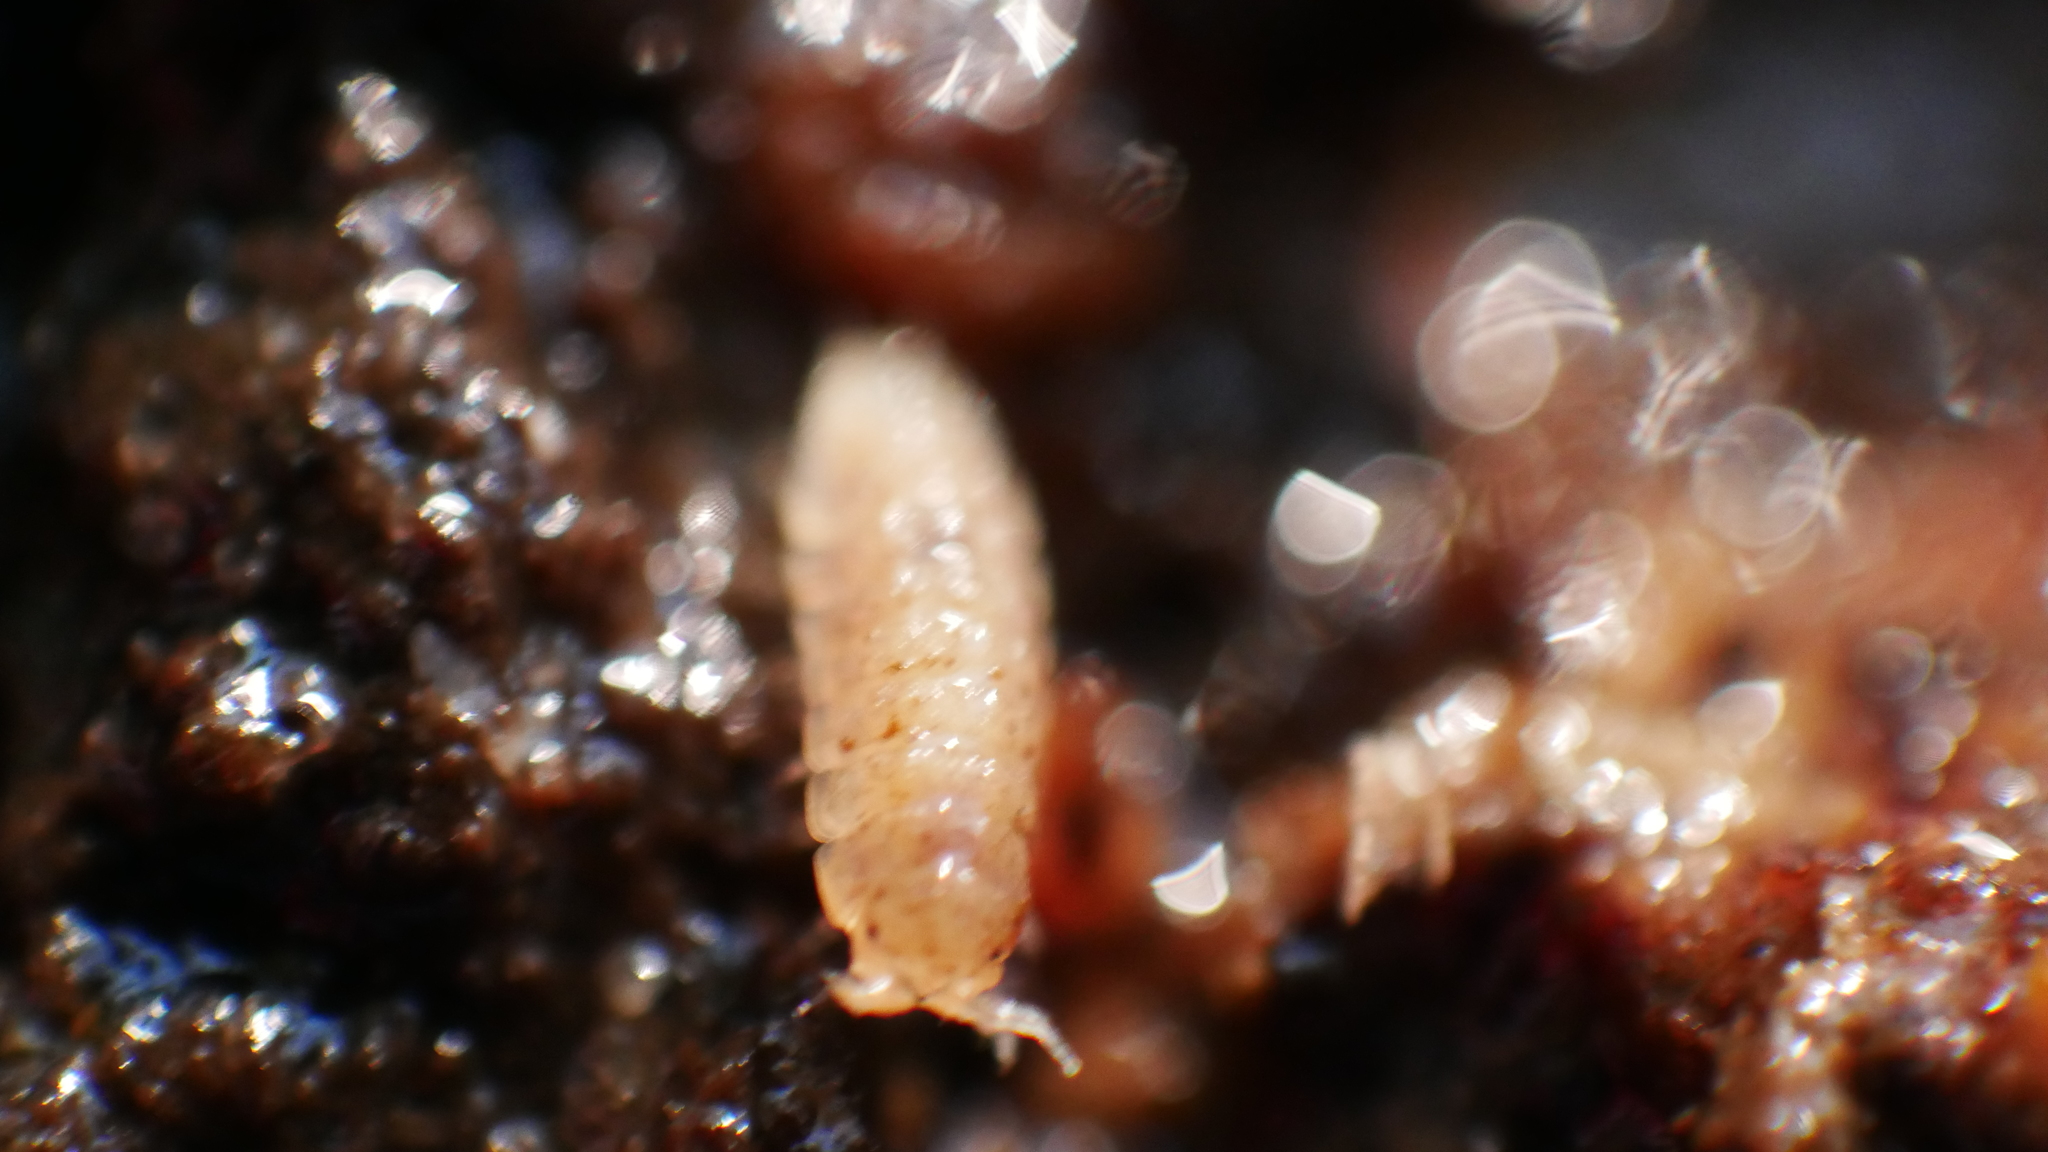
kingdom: Animalia
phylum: Arthropoda
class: Malacostraca
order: Isopoda
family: Trichoniscidae
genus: Haplophthalmus
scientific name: Haplophthalmus danicus
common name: Pillbug
